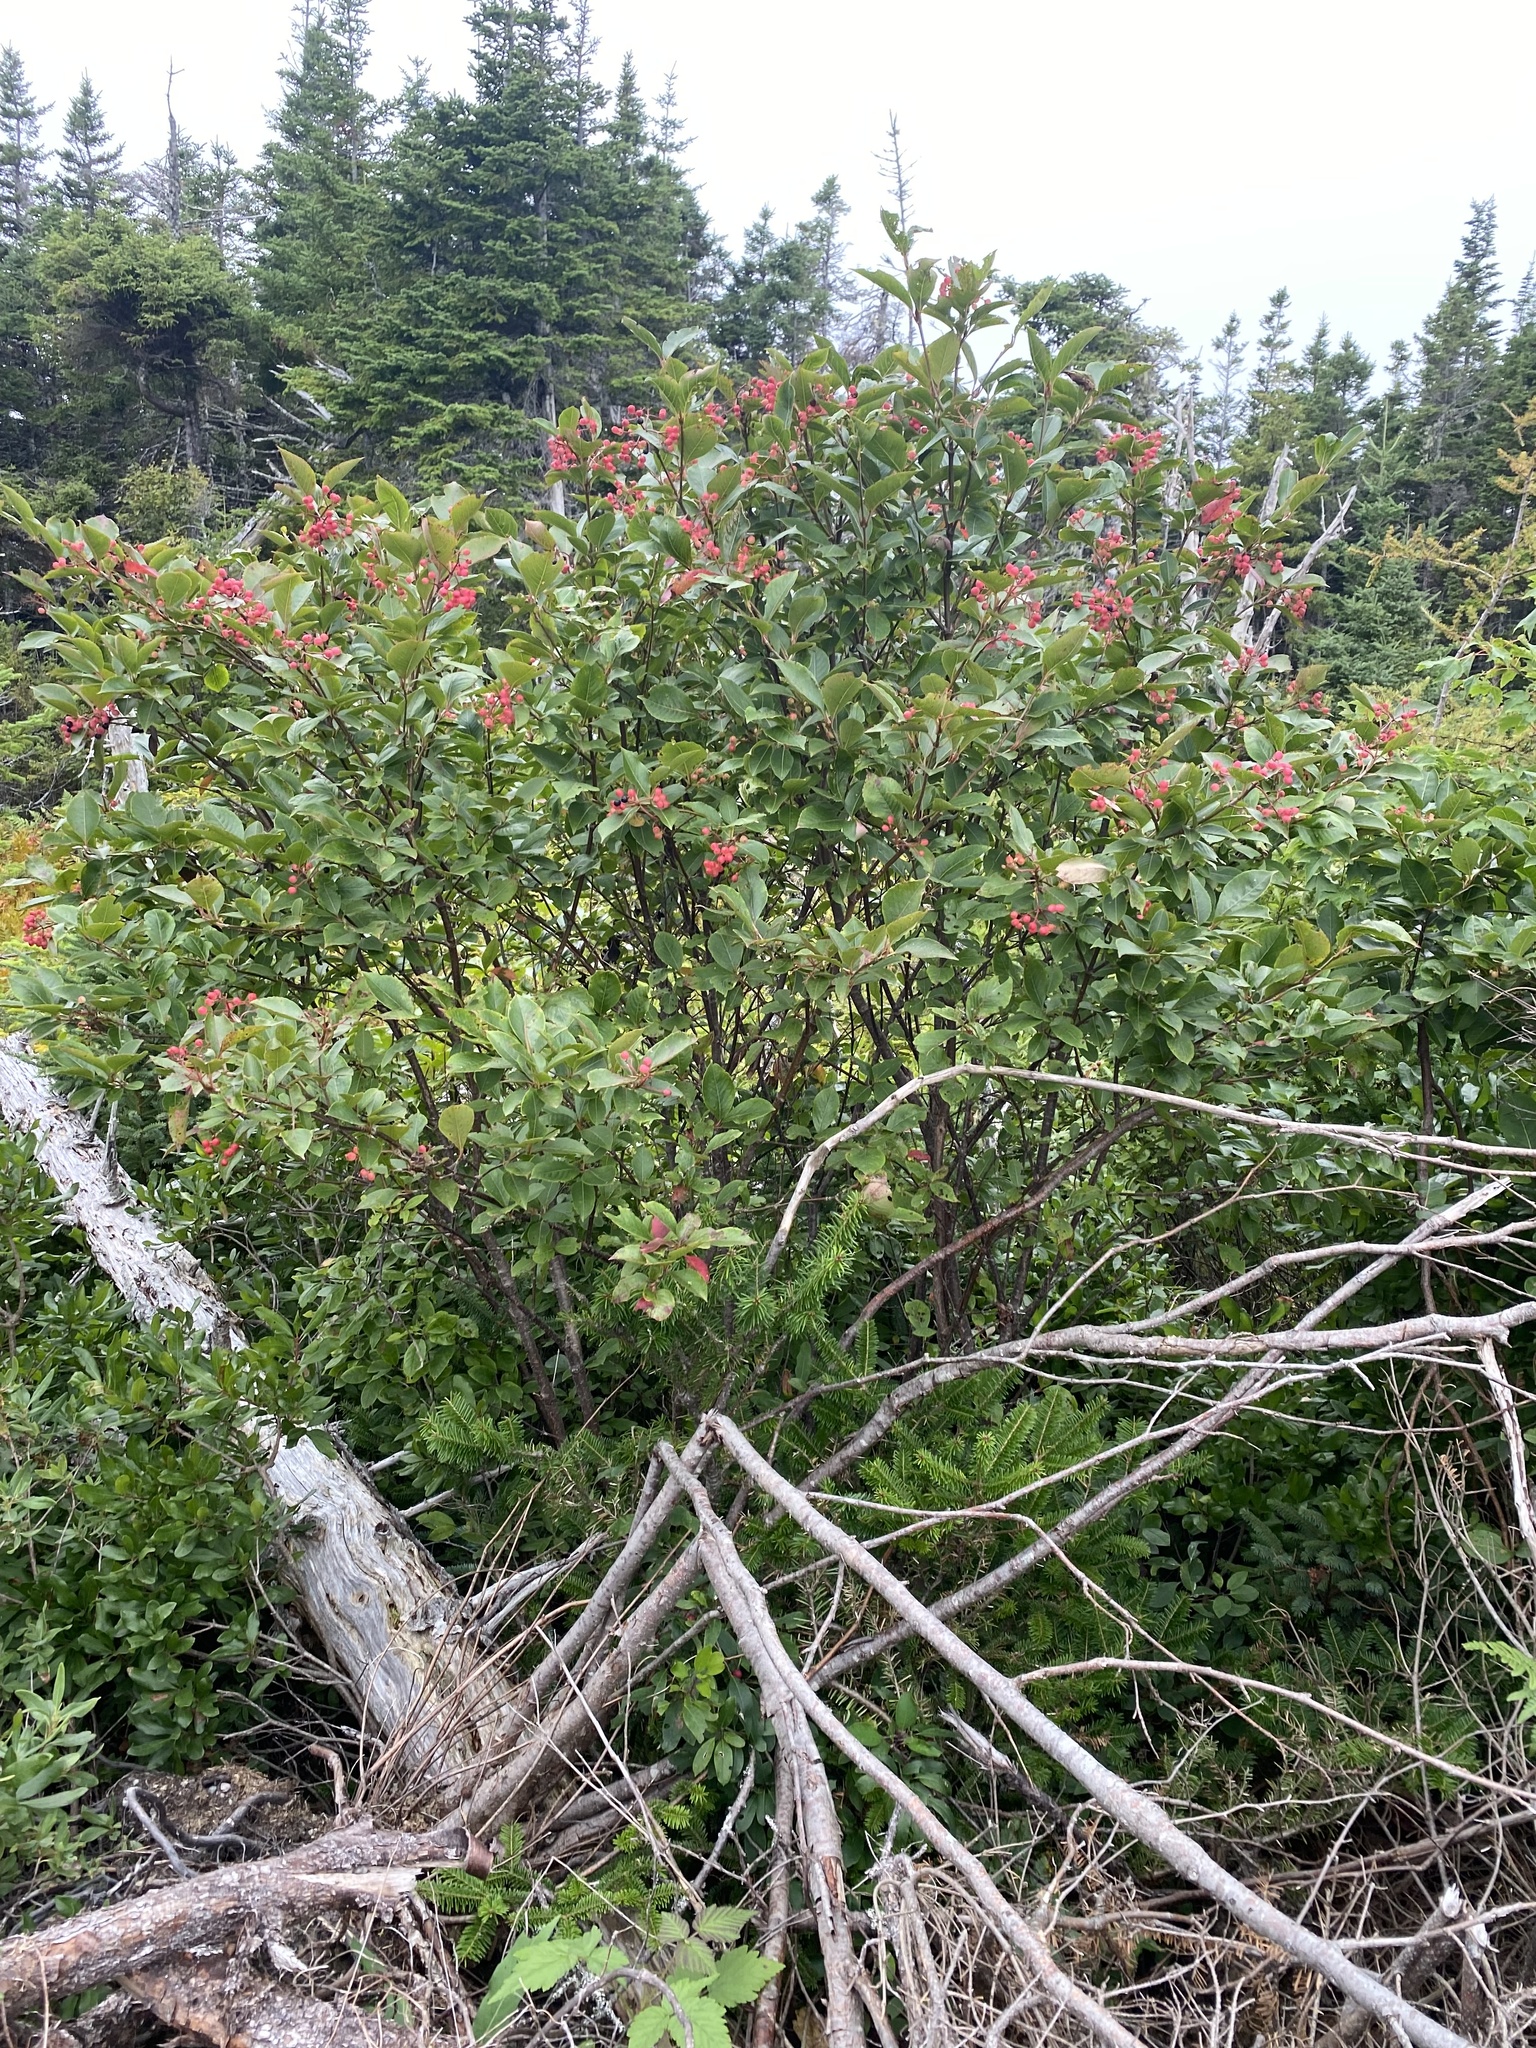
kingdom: Plantae
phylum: Tracheophyta
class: Magnoliopsida
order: Dipsacales
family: Viburnaceae
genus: Viburnum
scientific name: Viburnum cassinoides
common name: Swamp haw
